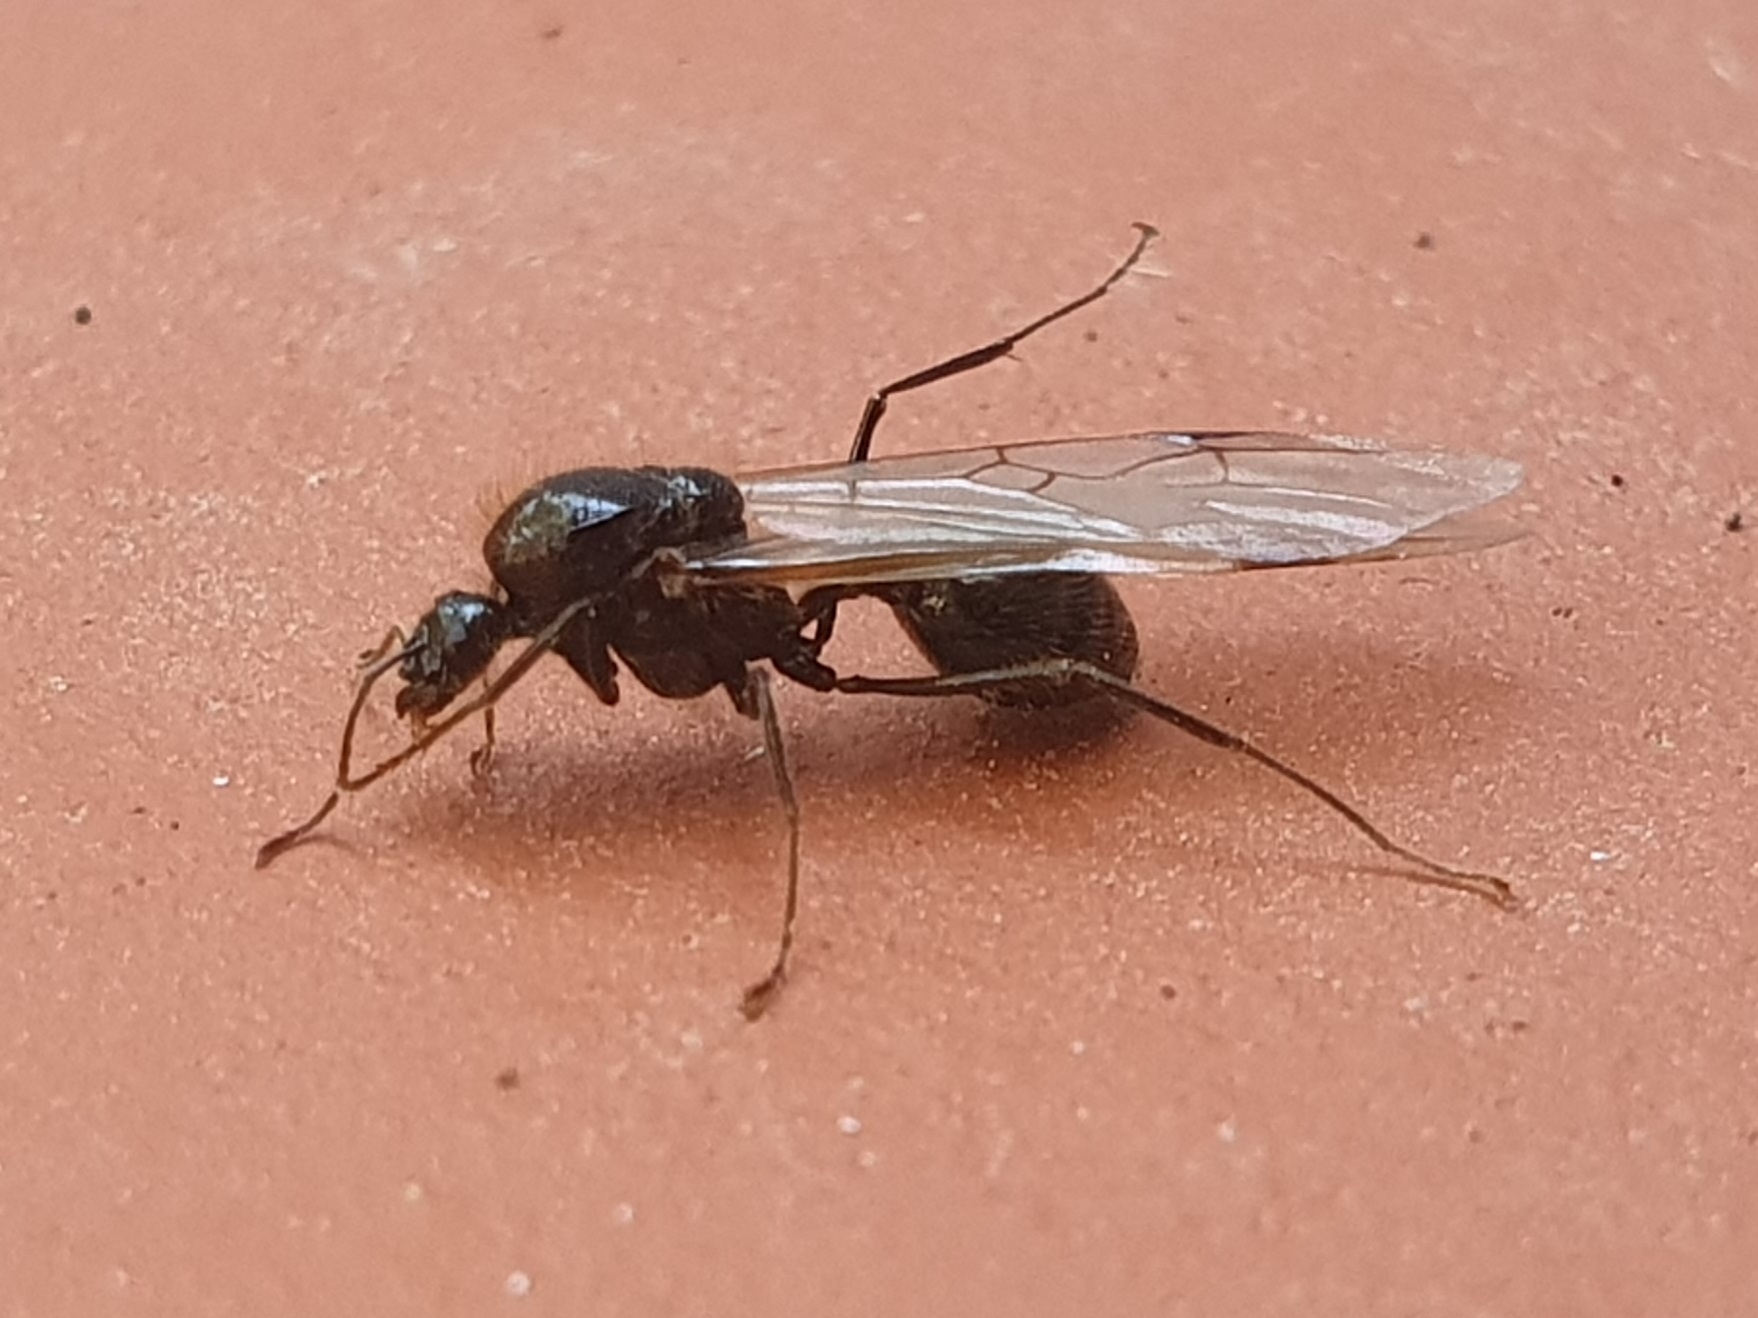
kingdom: Animalia
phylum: Arthropoda
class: Insecta
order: Hymenoptera
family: Formicidae
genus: Messor
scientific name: Messor barbarus
